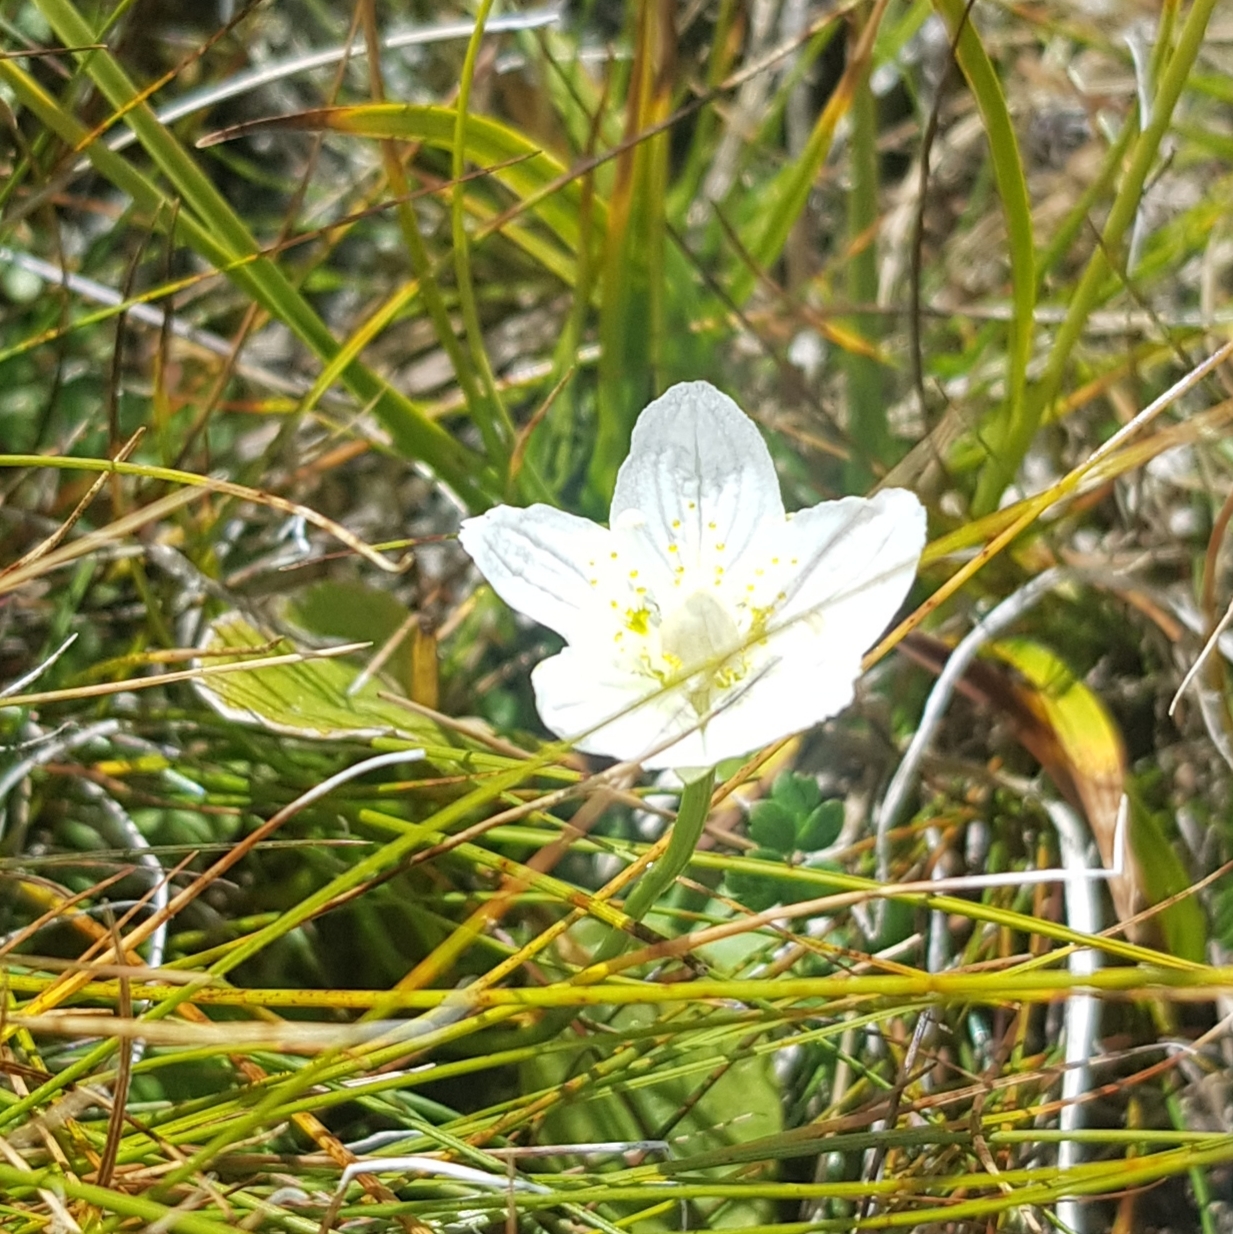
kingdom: Plantae
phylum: Tracheophyta
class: Magnoliopsida
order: Celastrales
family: Parnassiaceae
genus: Parnassia
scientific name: Parnassia palustris
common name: Grass-of-parnassus
